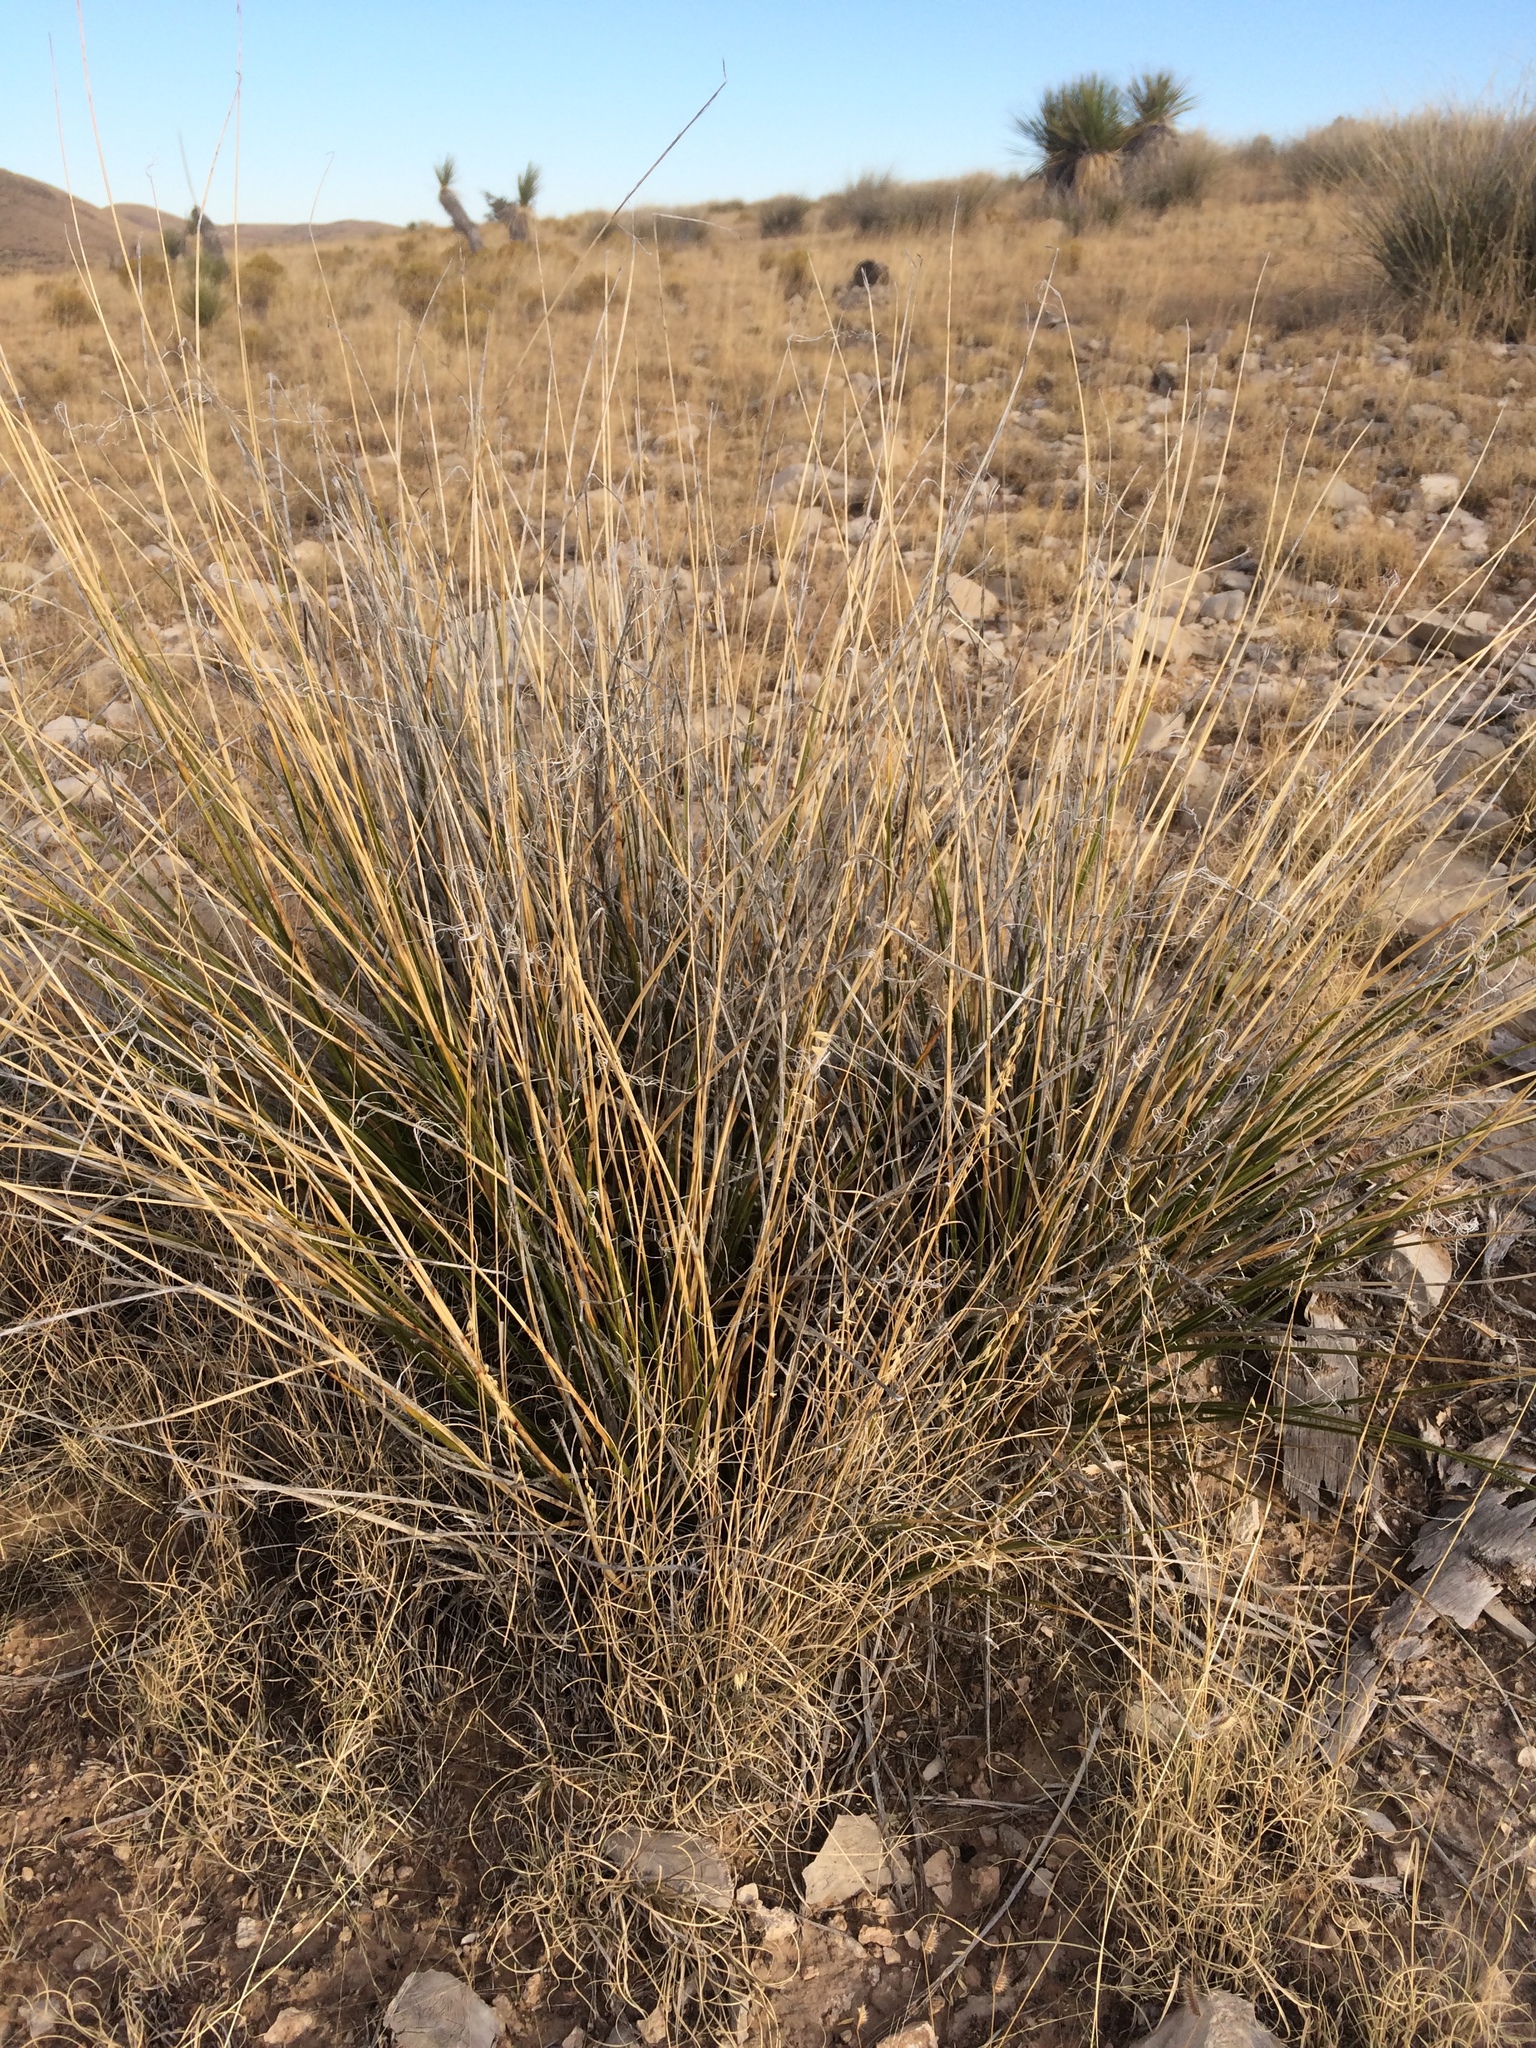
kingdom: Plantae
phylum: Tracheophyta
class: Liliopsida
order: Asparagales
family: Asparagaceae
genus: Nolina
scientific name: Nolina texana
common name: Texas sacahuiste
